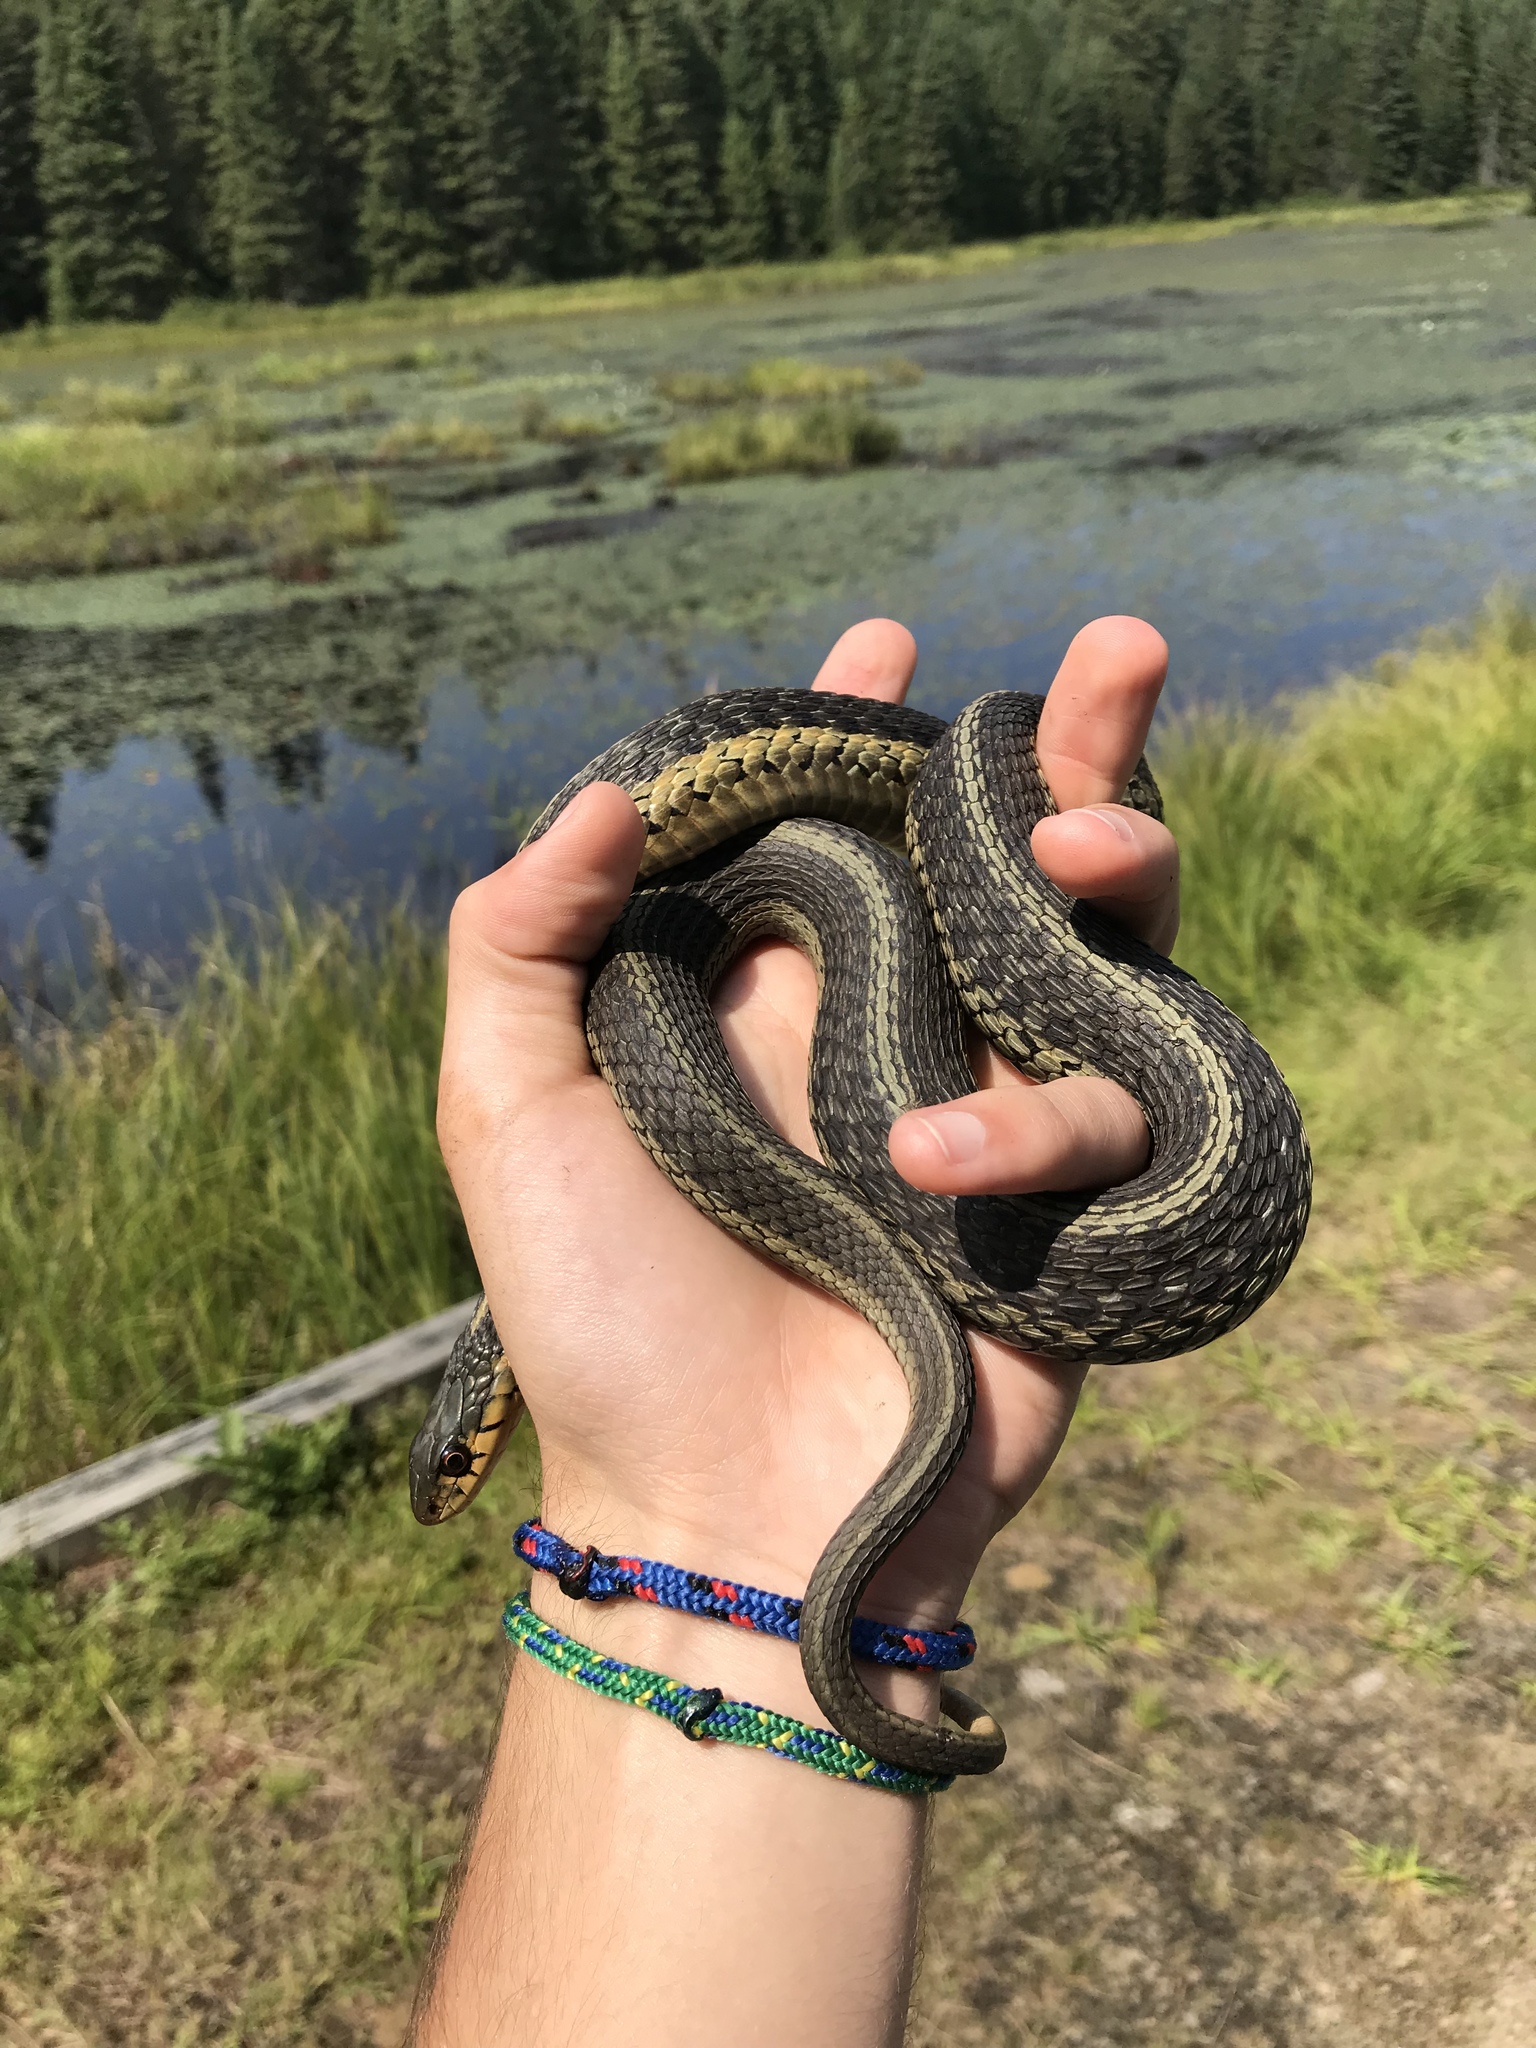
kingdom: Animalia
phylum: Chordata
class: Squamata
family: Colubridae
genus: Thamnophis
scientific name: Thamnophis sirtalis
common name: Common garter snake
